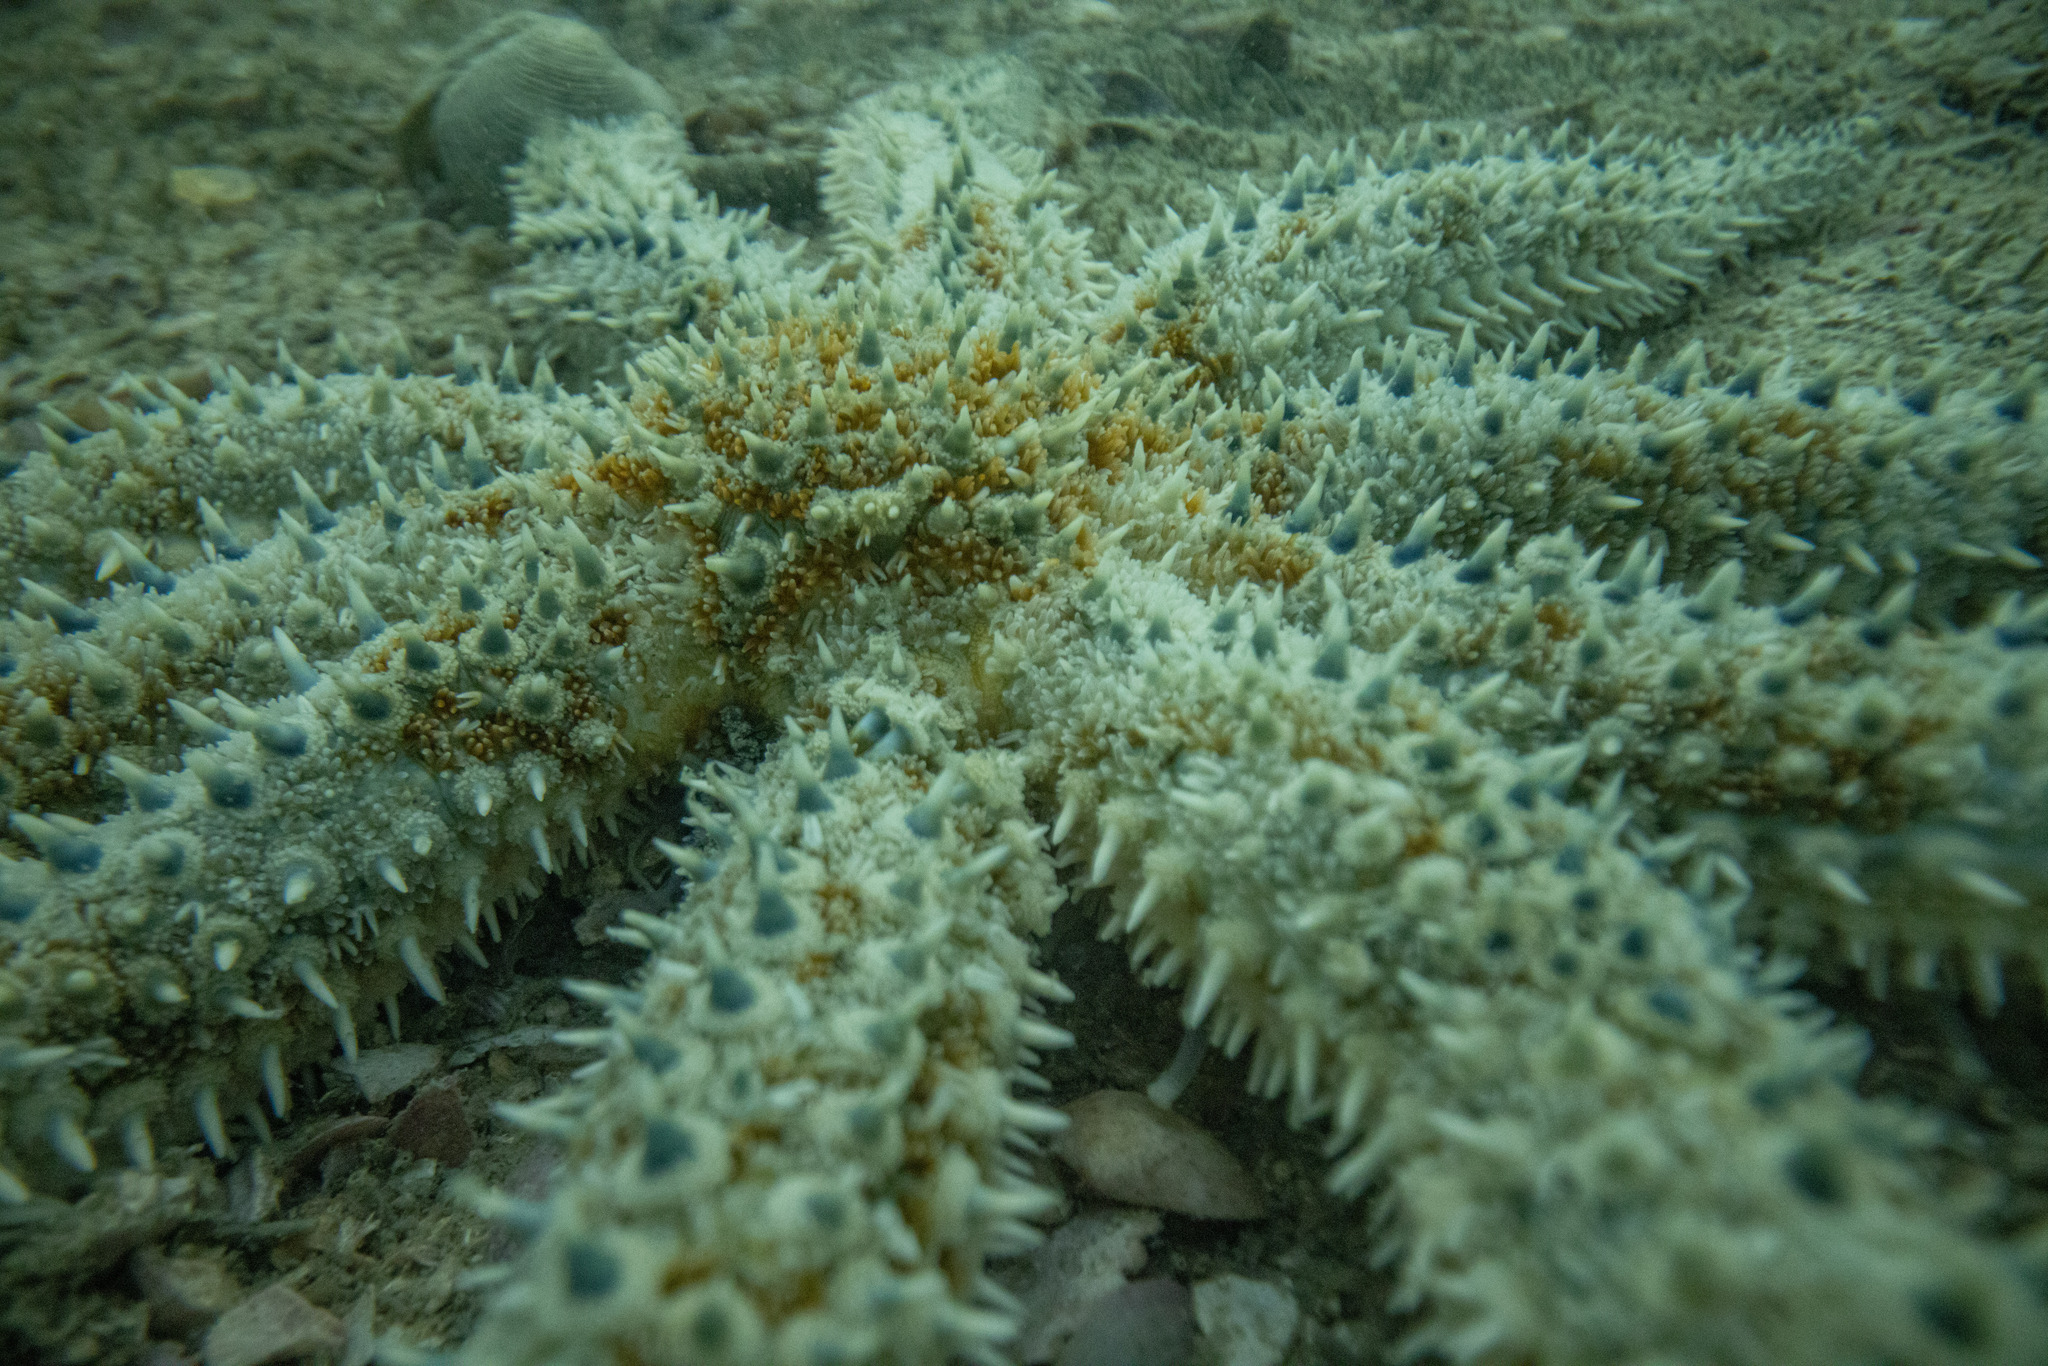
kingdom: Animalia
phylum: Echinodermata
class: Asteroidea
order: Forcipulatida
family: Asteriidae
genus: Coscinasterias
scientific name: Coscinasterias muricata
